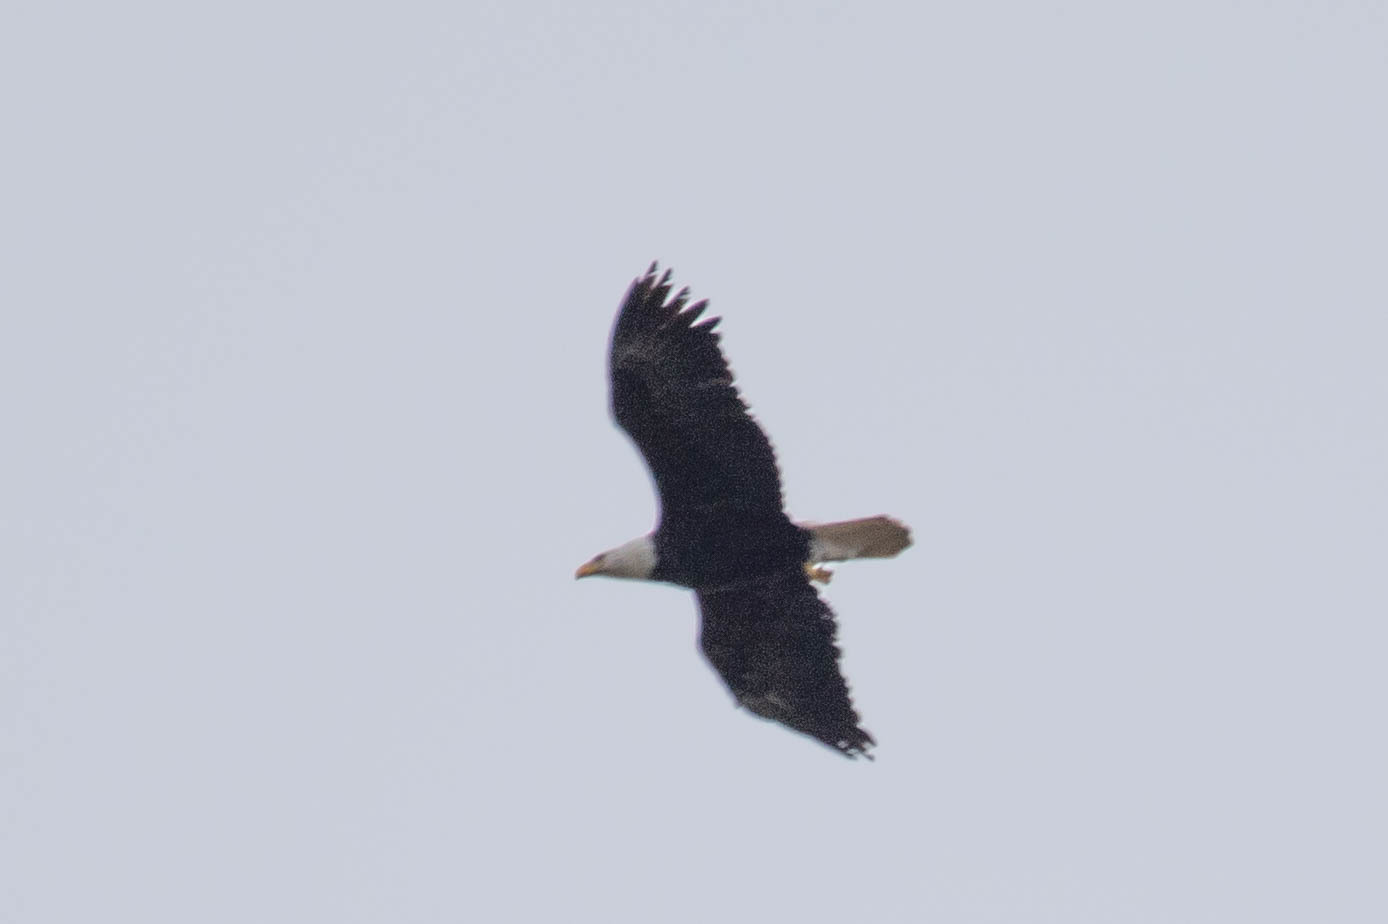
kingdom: Animalia
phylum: Chordata
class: Aves
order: Accipitriformes
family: Accipitridae
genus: Haliaeetus
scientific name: Haliaeetus leucocephalus
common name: Bald eagle
